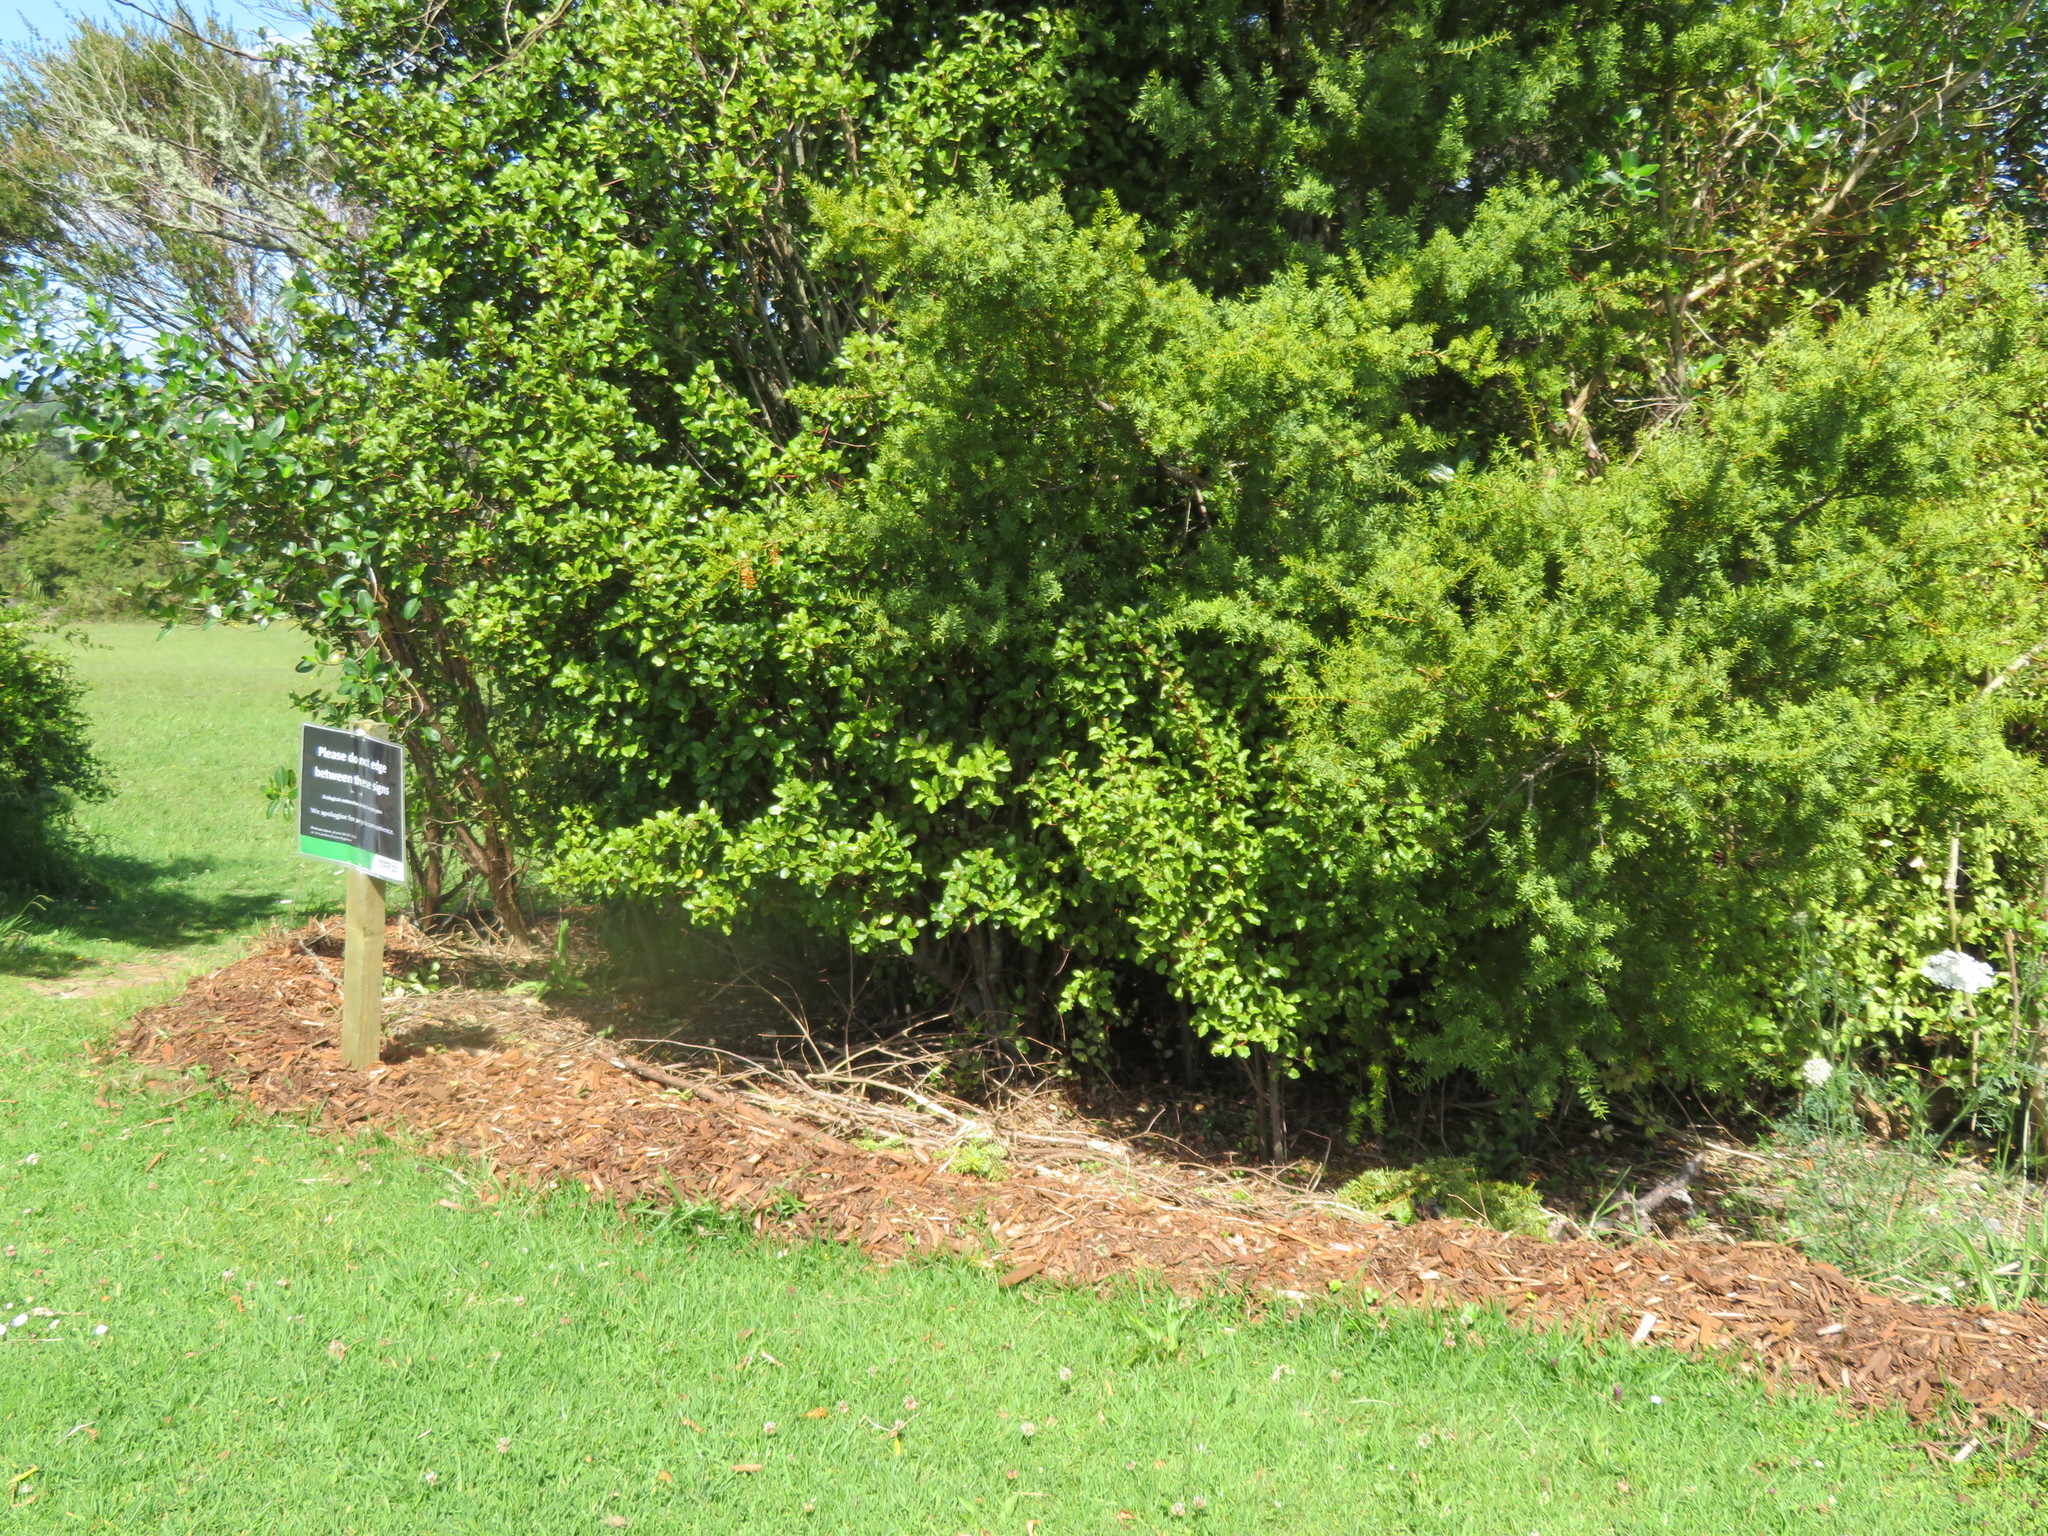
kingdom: Plantae
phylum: Tracheophyta
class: Pinopsida
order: Pinales
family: Podocarpaceae
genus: Podocarpus
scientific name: Podocarpus totara
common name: Totara
